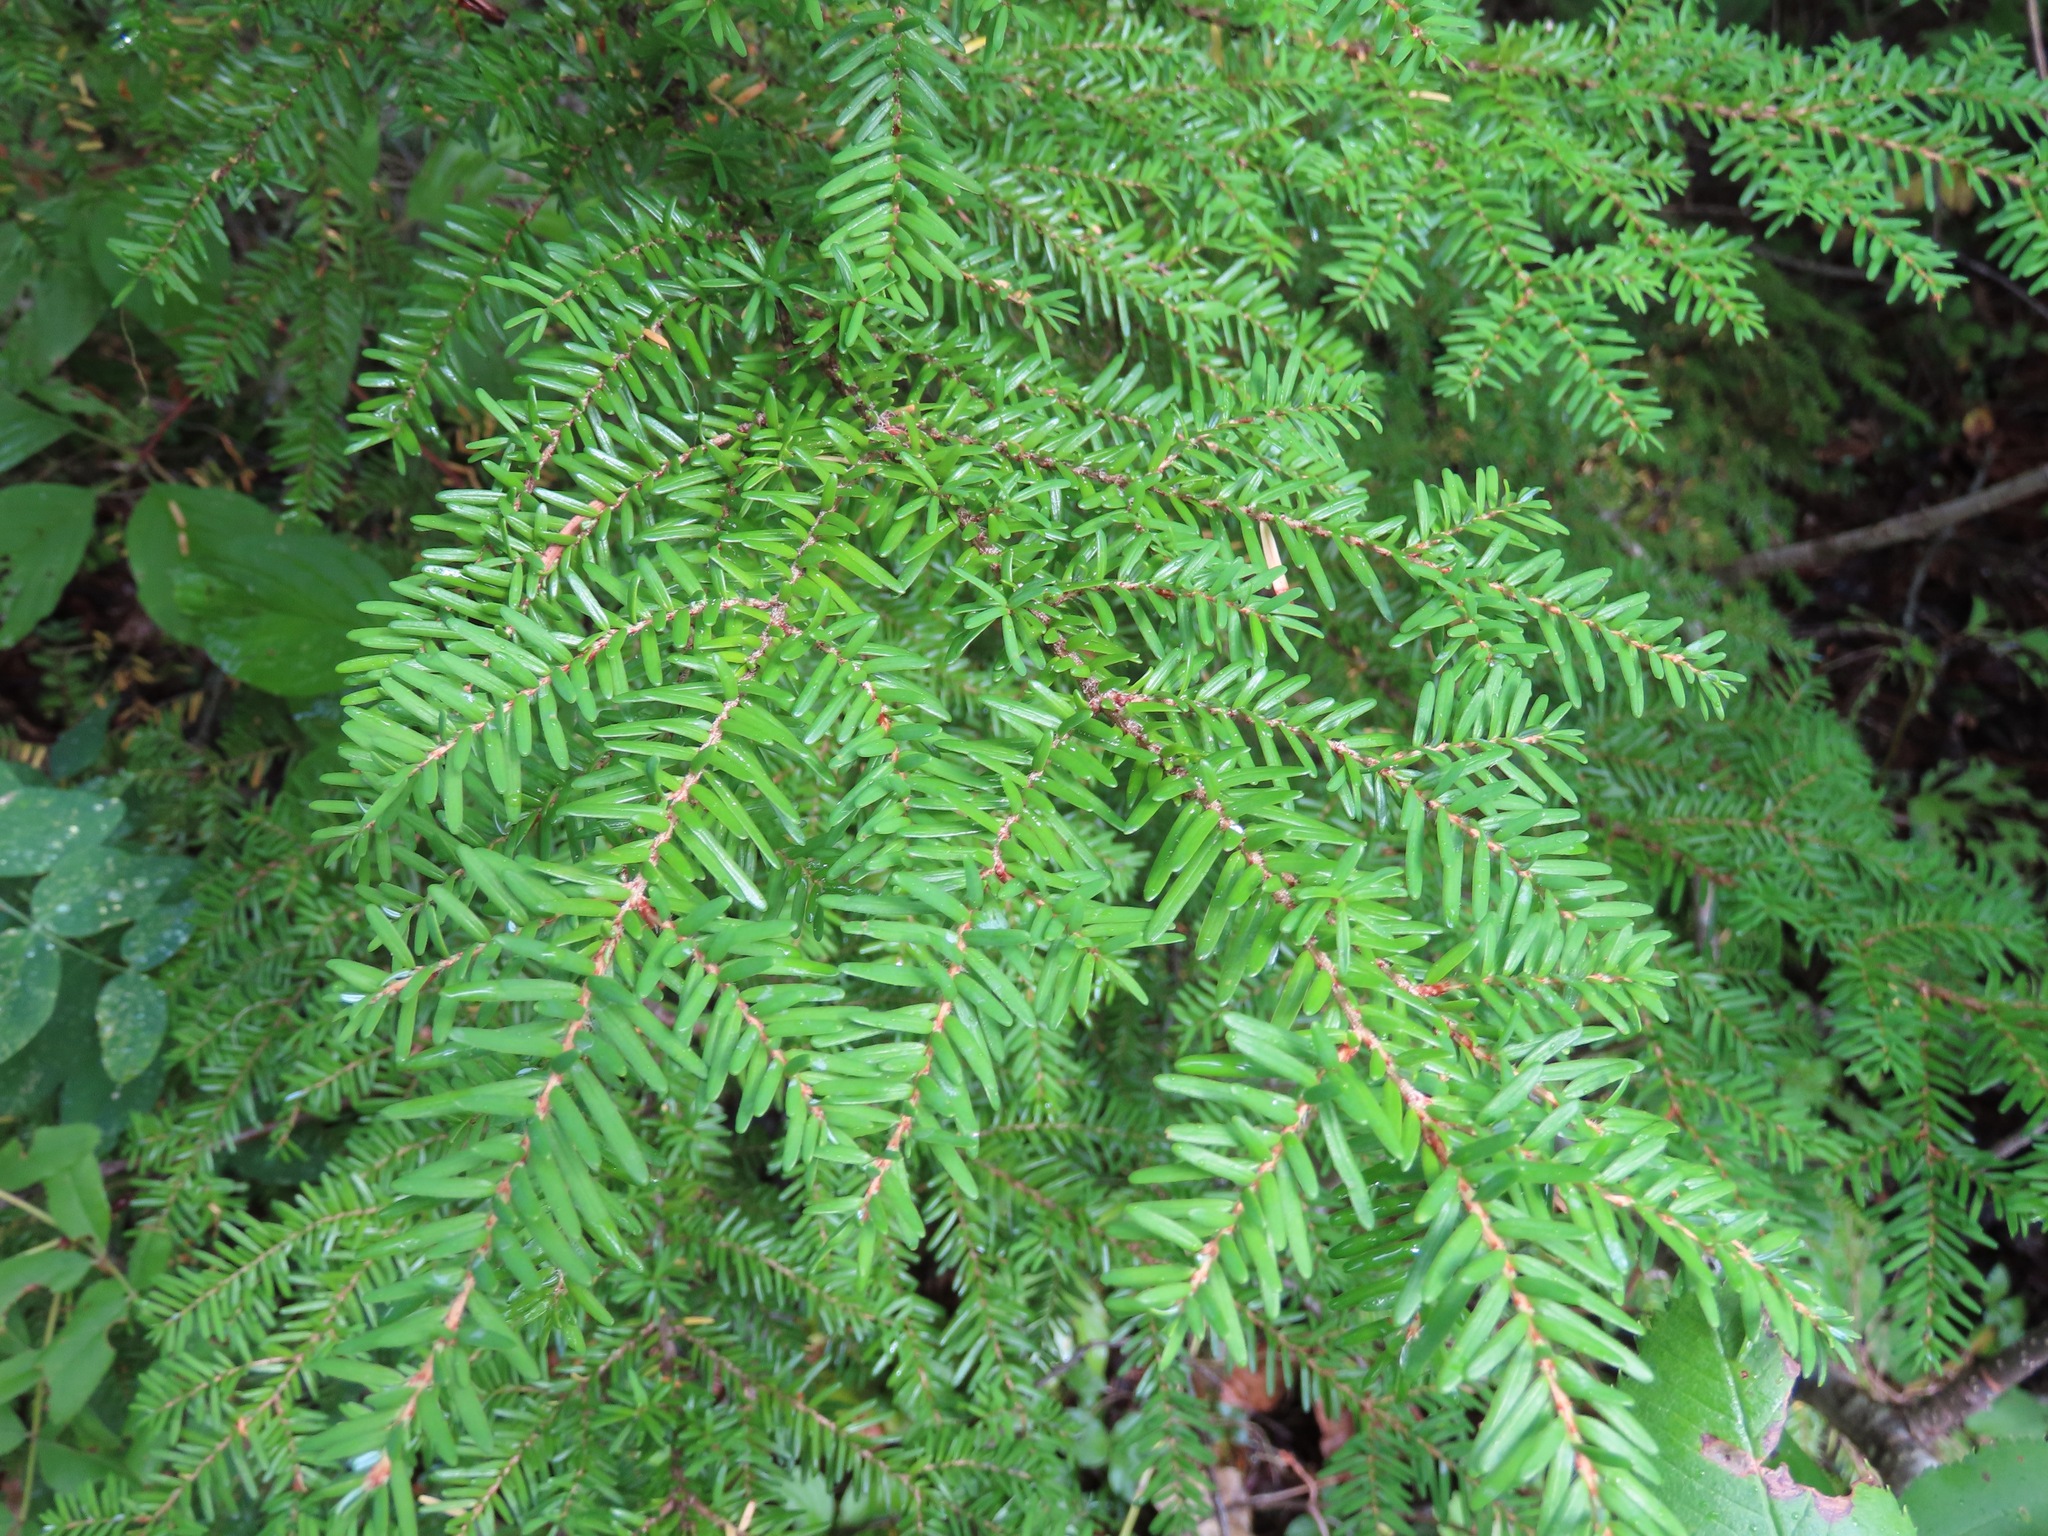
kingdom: Plantae
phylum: Tracheophyta
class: Pinopsida
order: Pinales
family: Pinaceae
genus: Tsuga
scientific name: Tsuga heterophylla
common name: Western hemlock
